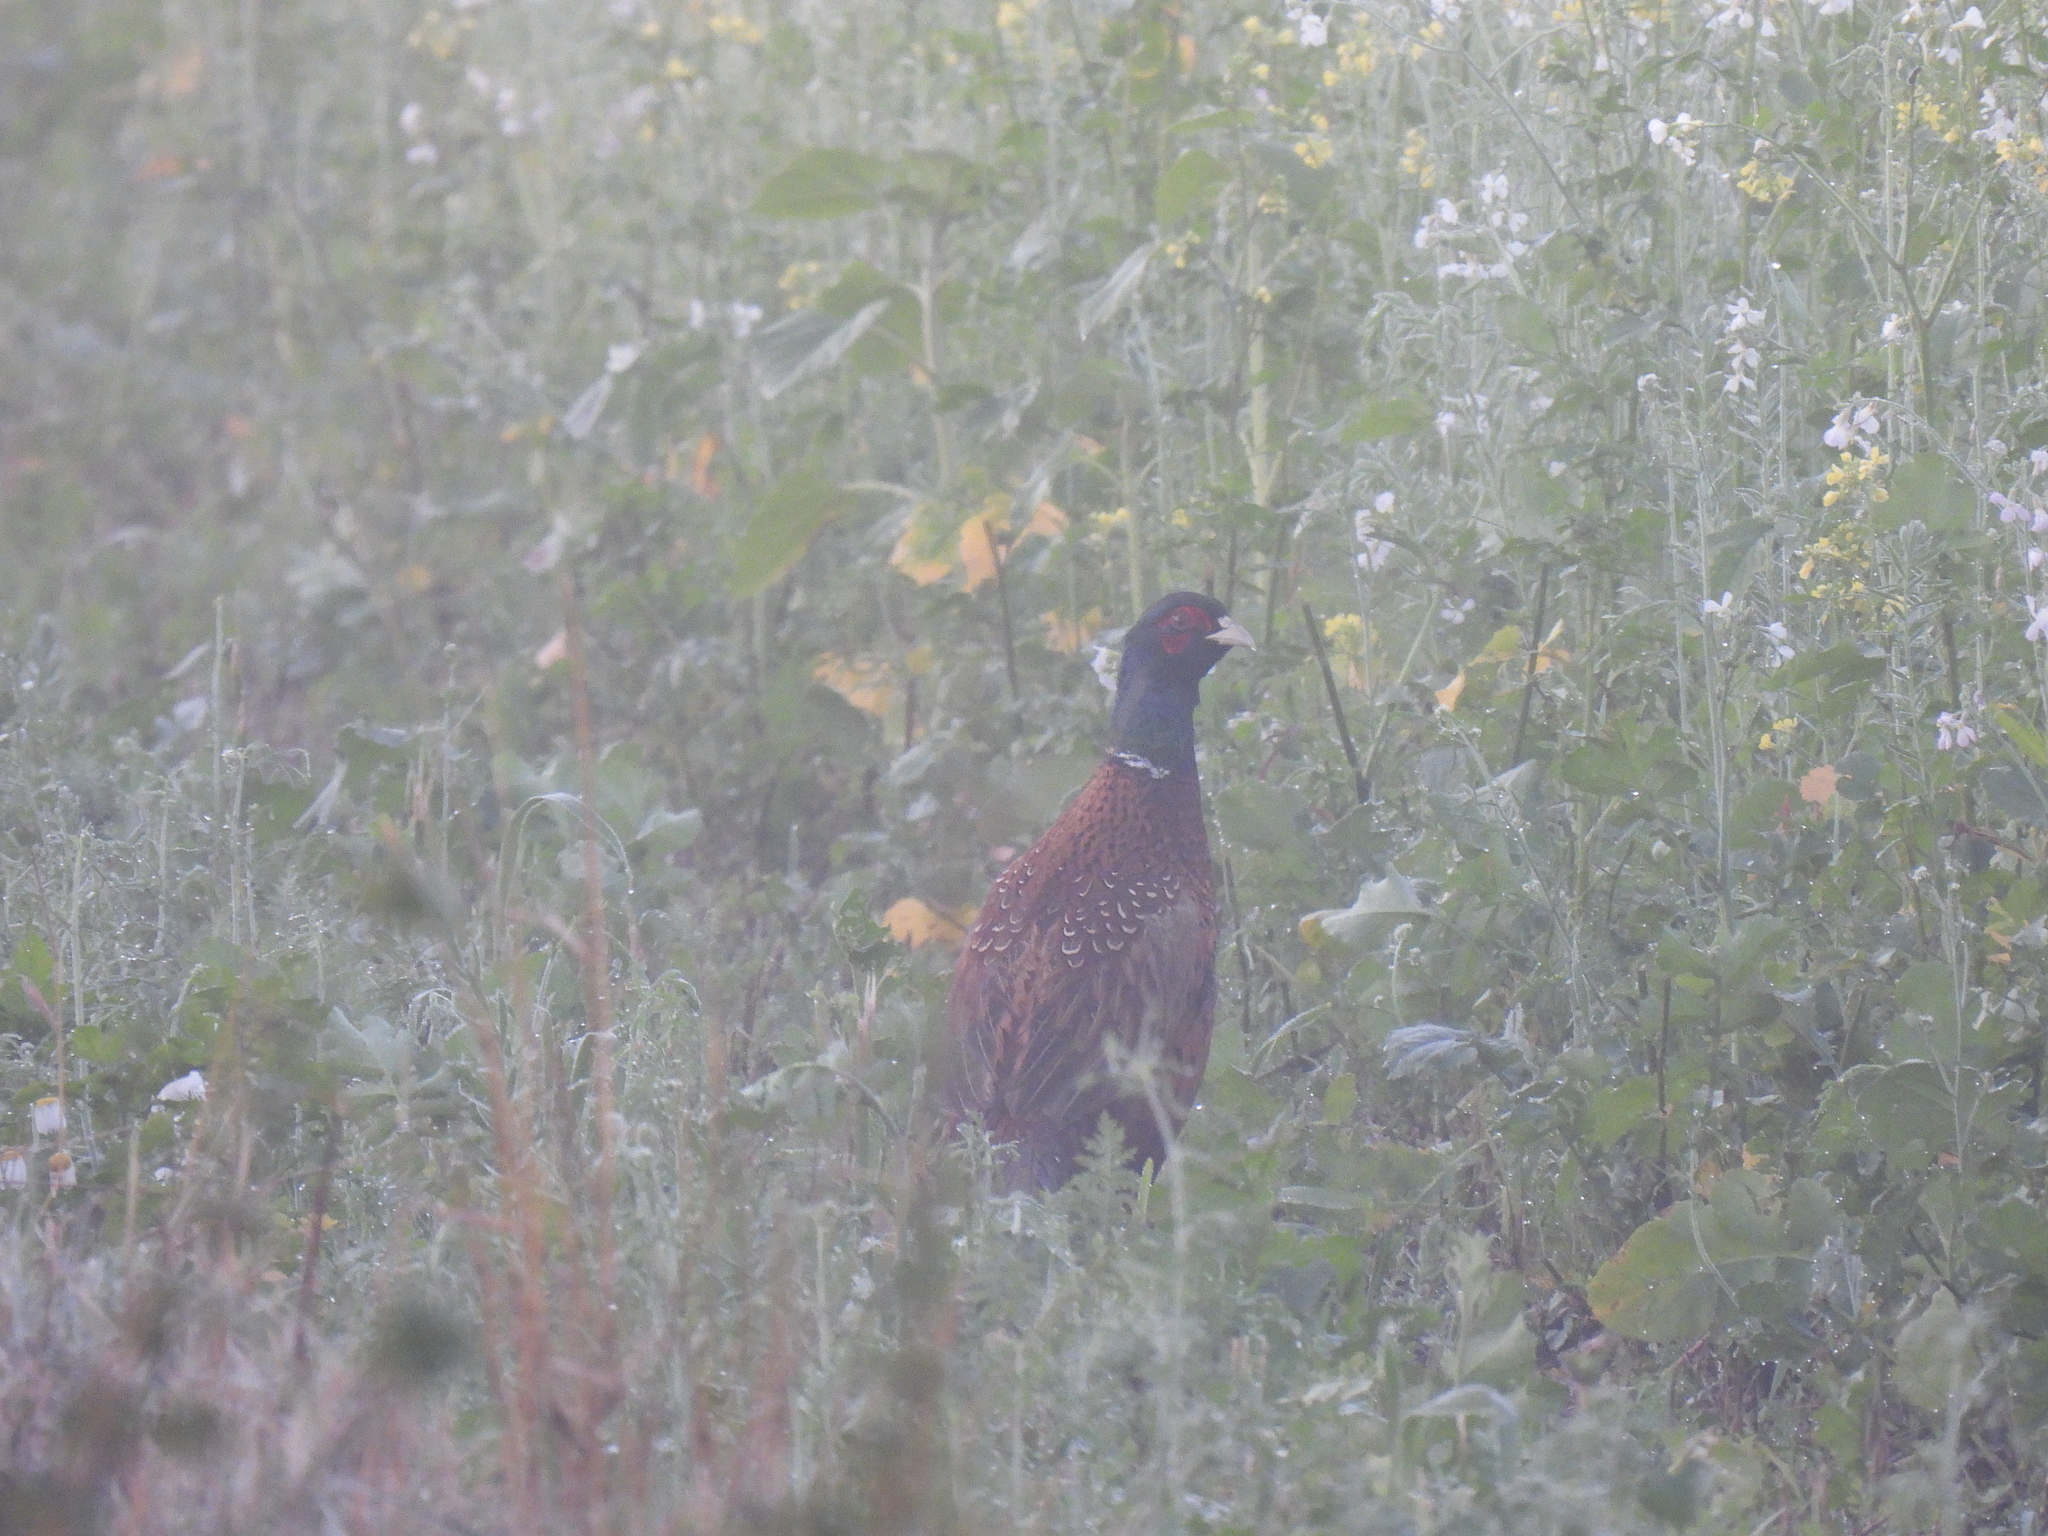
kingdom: Animalia
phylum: Chordata
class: Aves
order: Galliformes
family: Phasianidae
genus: Phasianus
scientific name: Phasianus colchicus
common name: Common pheasant
